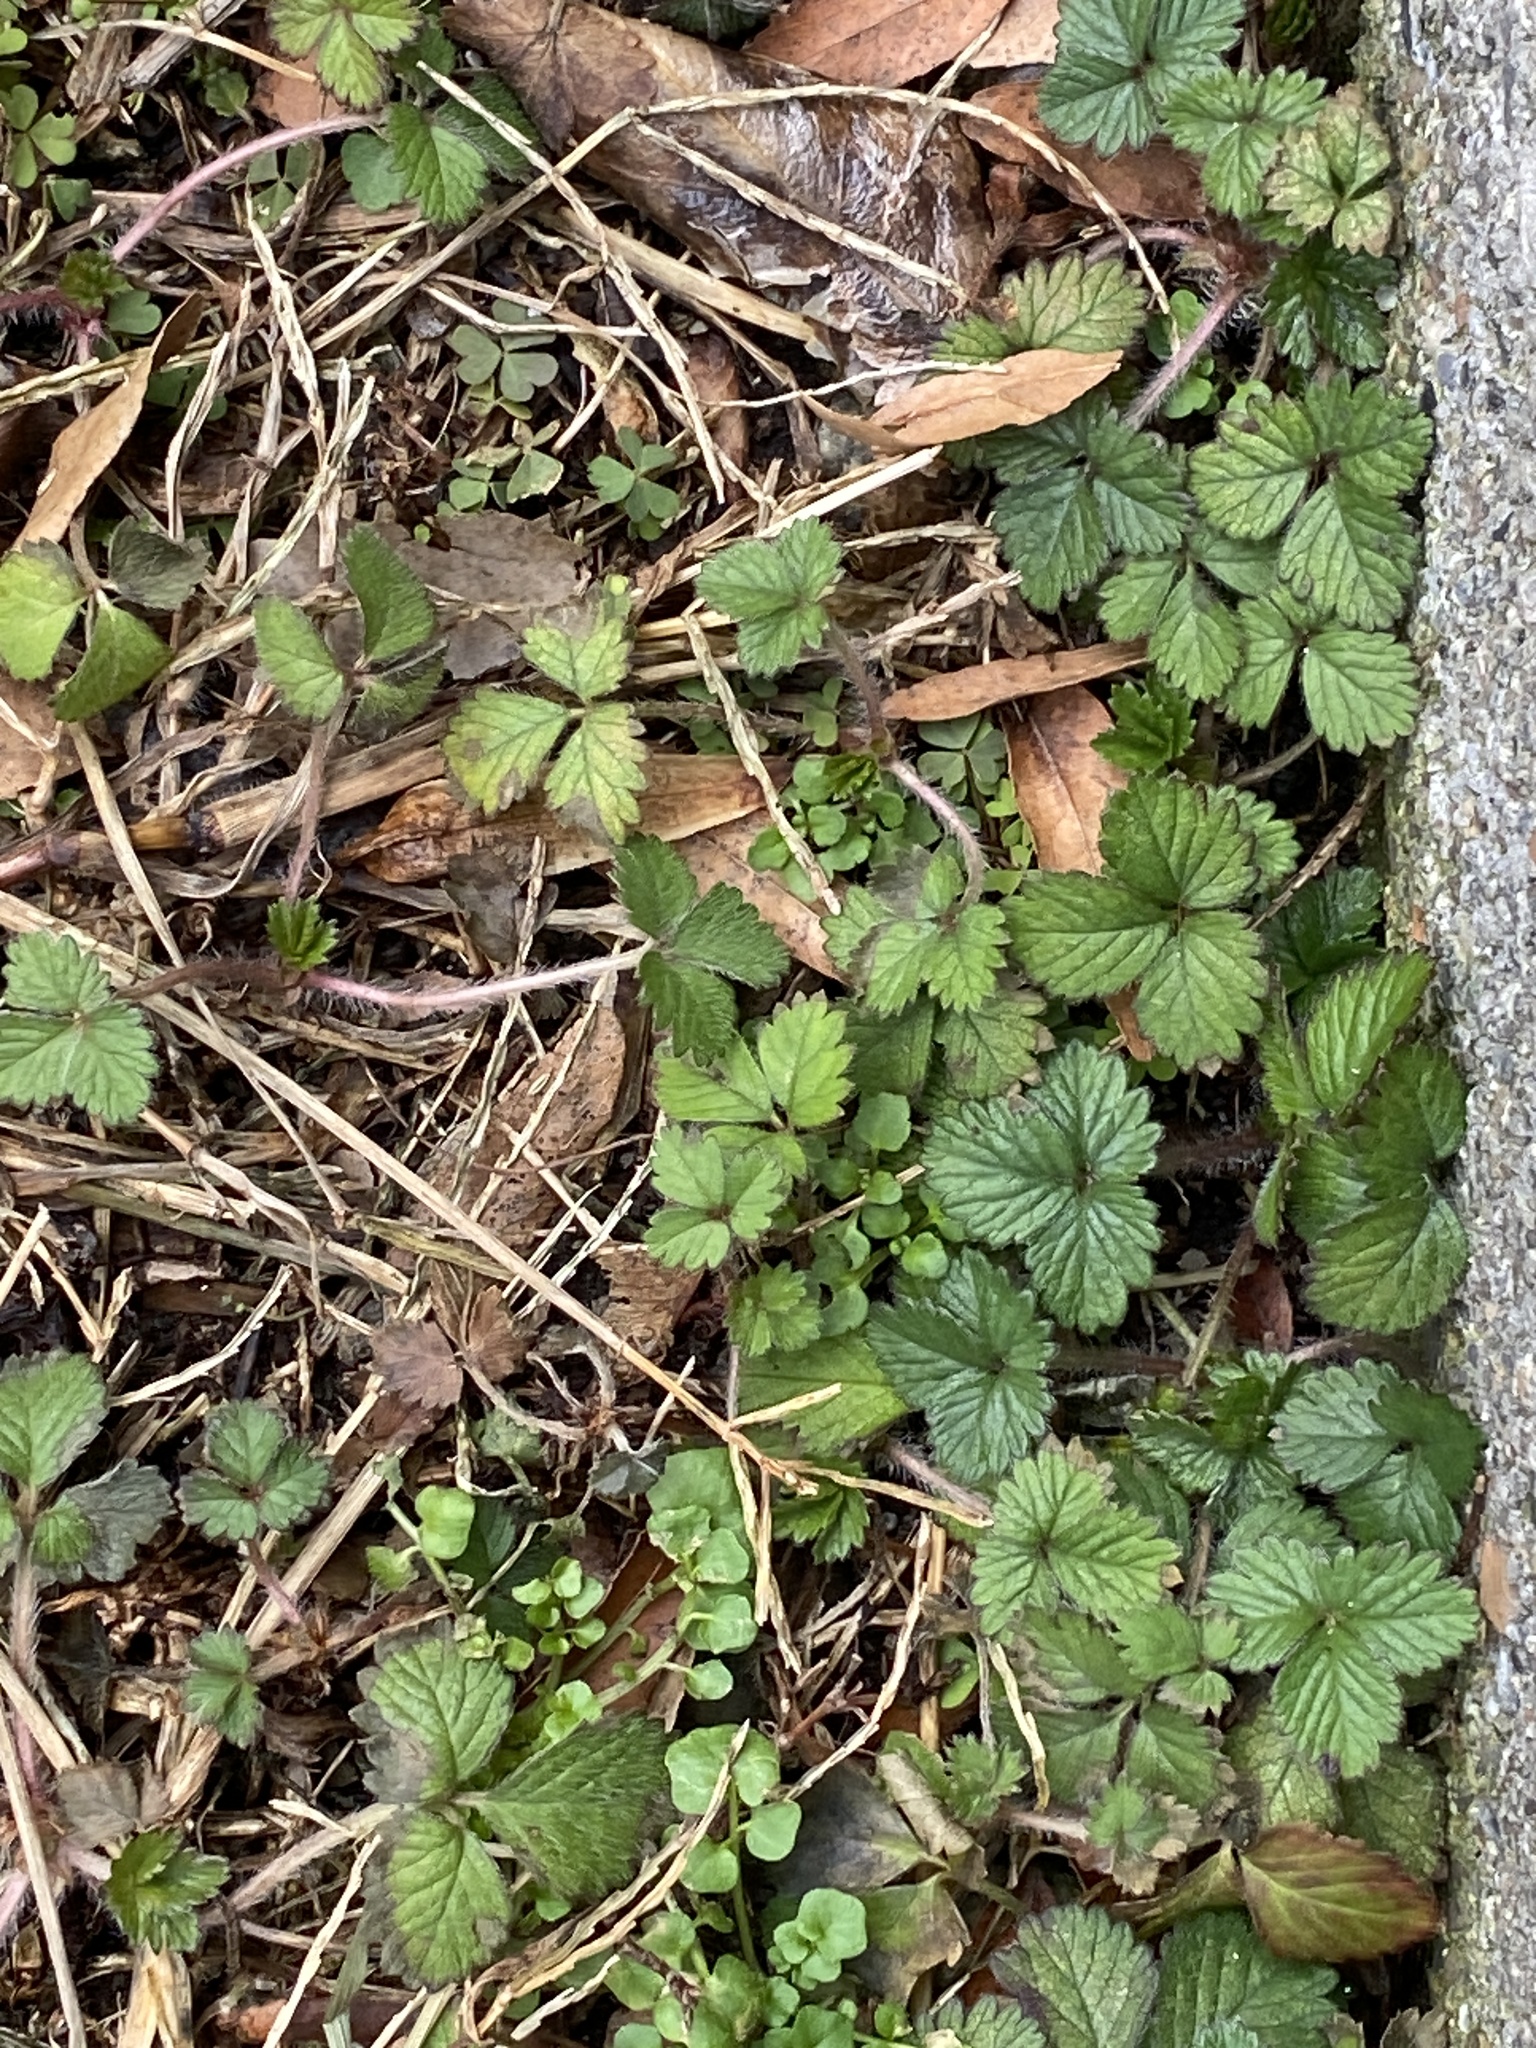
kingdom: Plantae
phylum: Tracheophyta
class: Magnoliopsida
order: Rosales
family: Rosaceae
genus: Potentilla
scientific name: Potentilla indica
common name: Yellow-flowered strawberry
